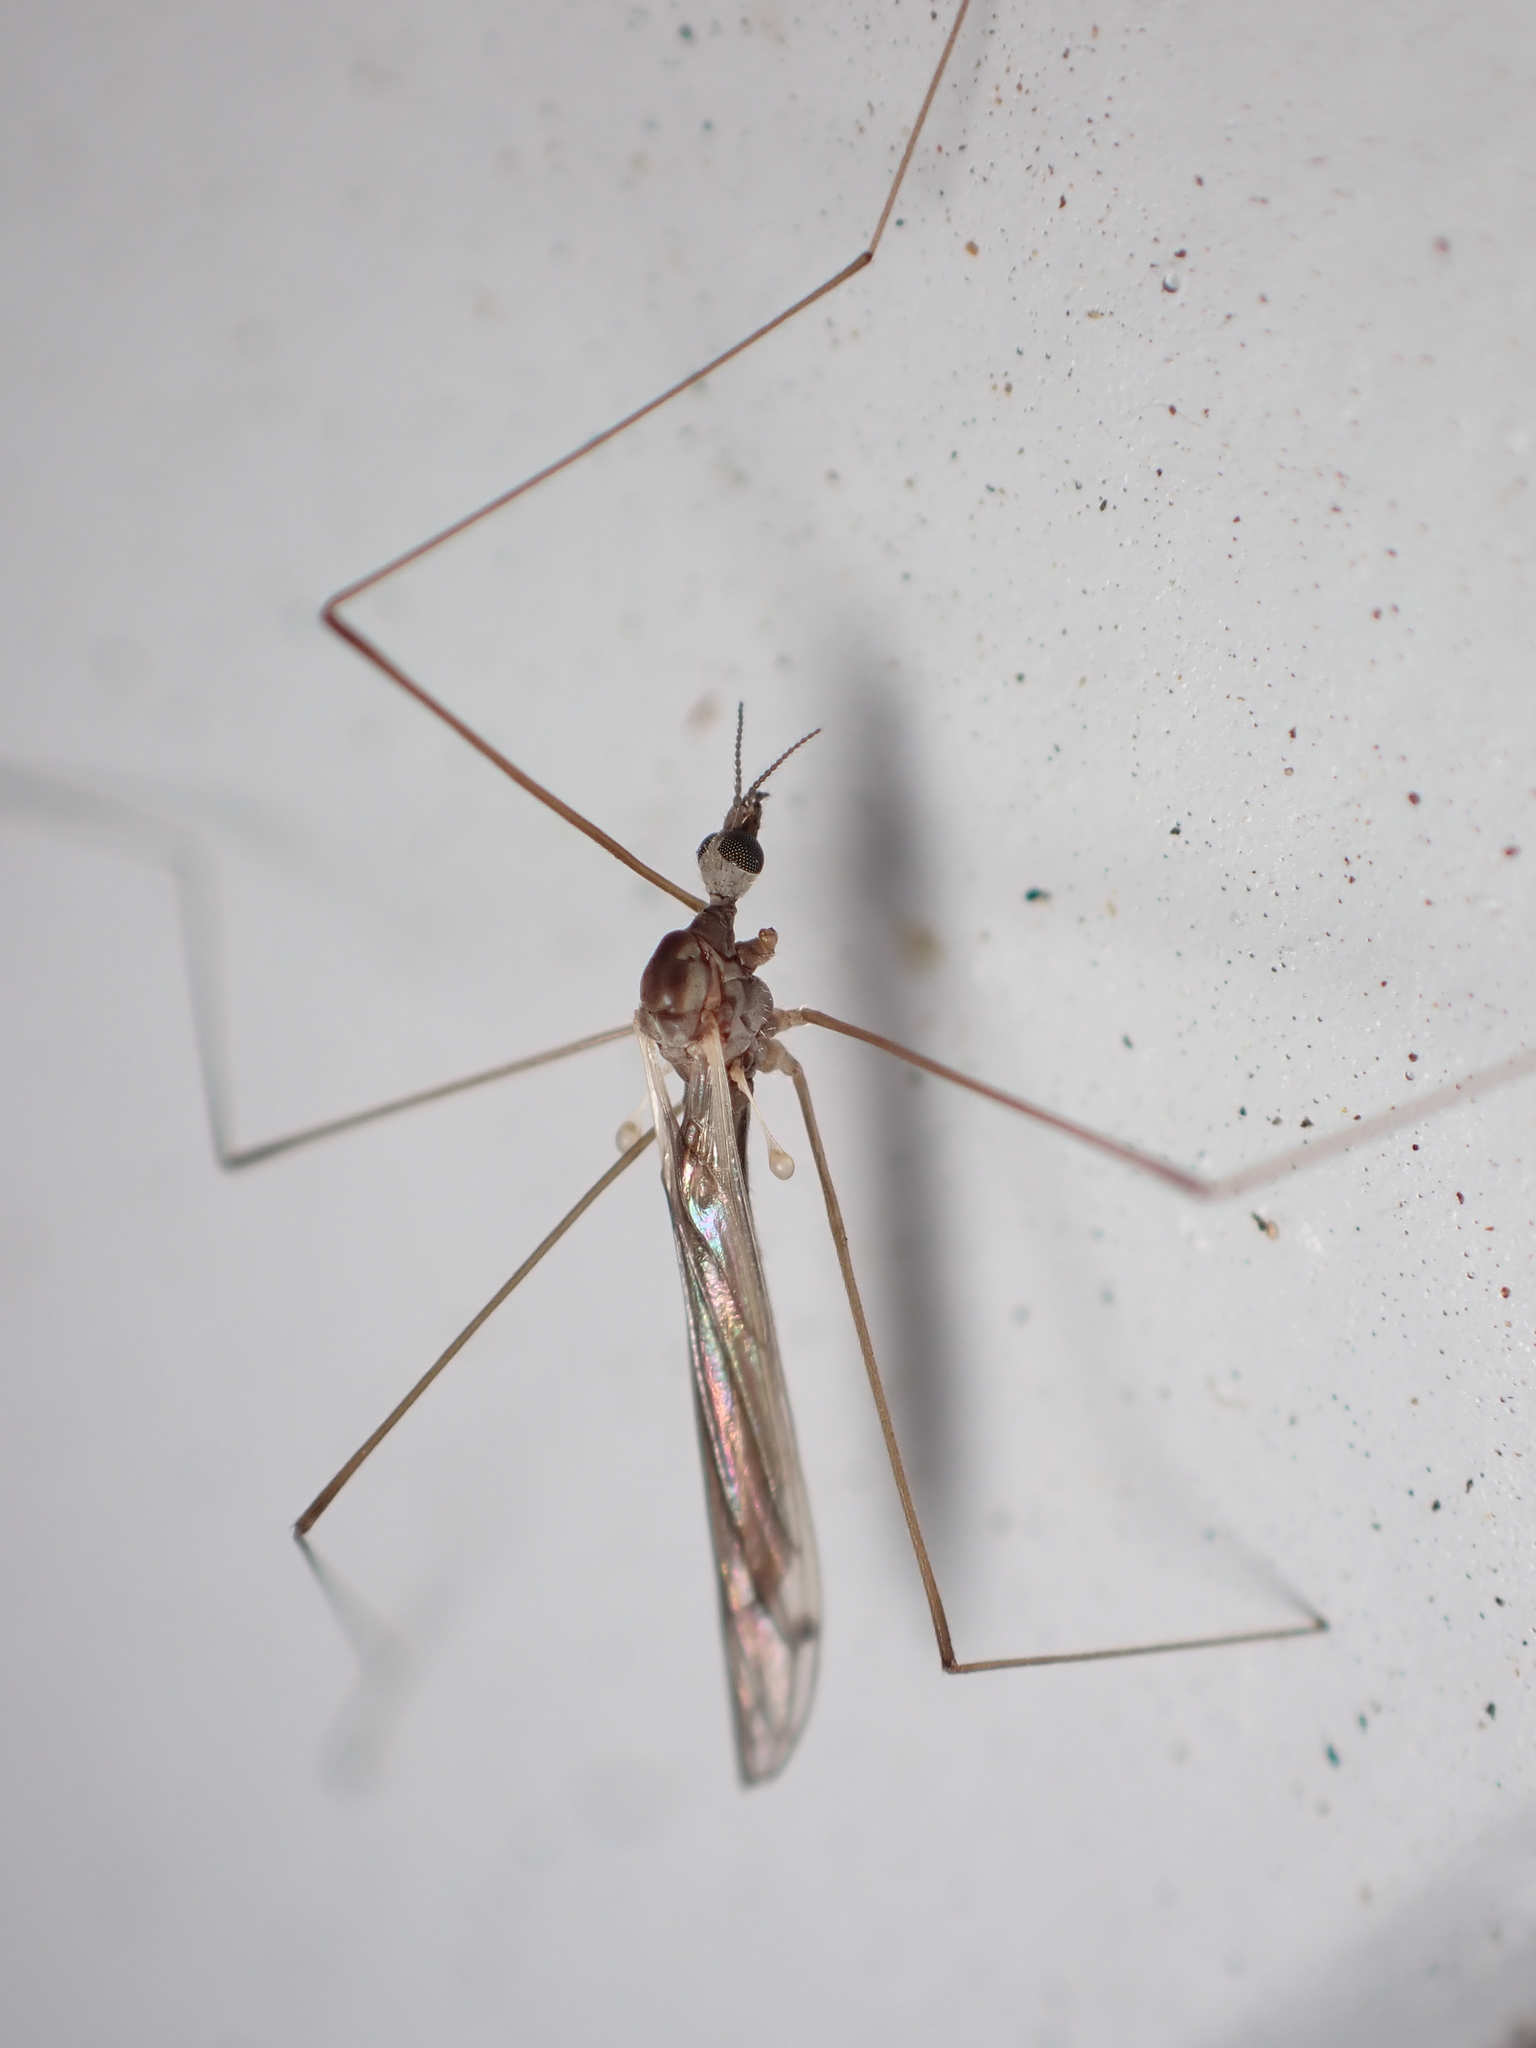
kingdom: Animalia
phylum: Arthropoda
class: Insecta
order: Diptera
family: Limoniidae
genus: Dicranomyia
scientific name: Dicranomyia aegrotans
